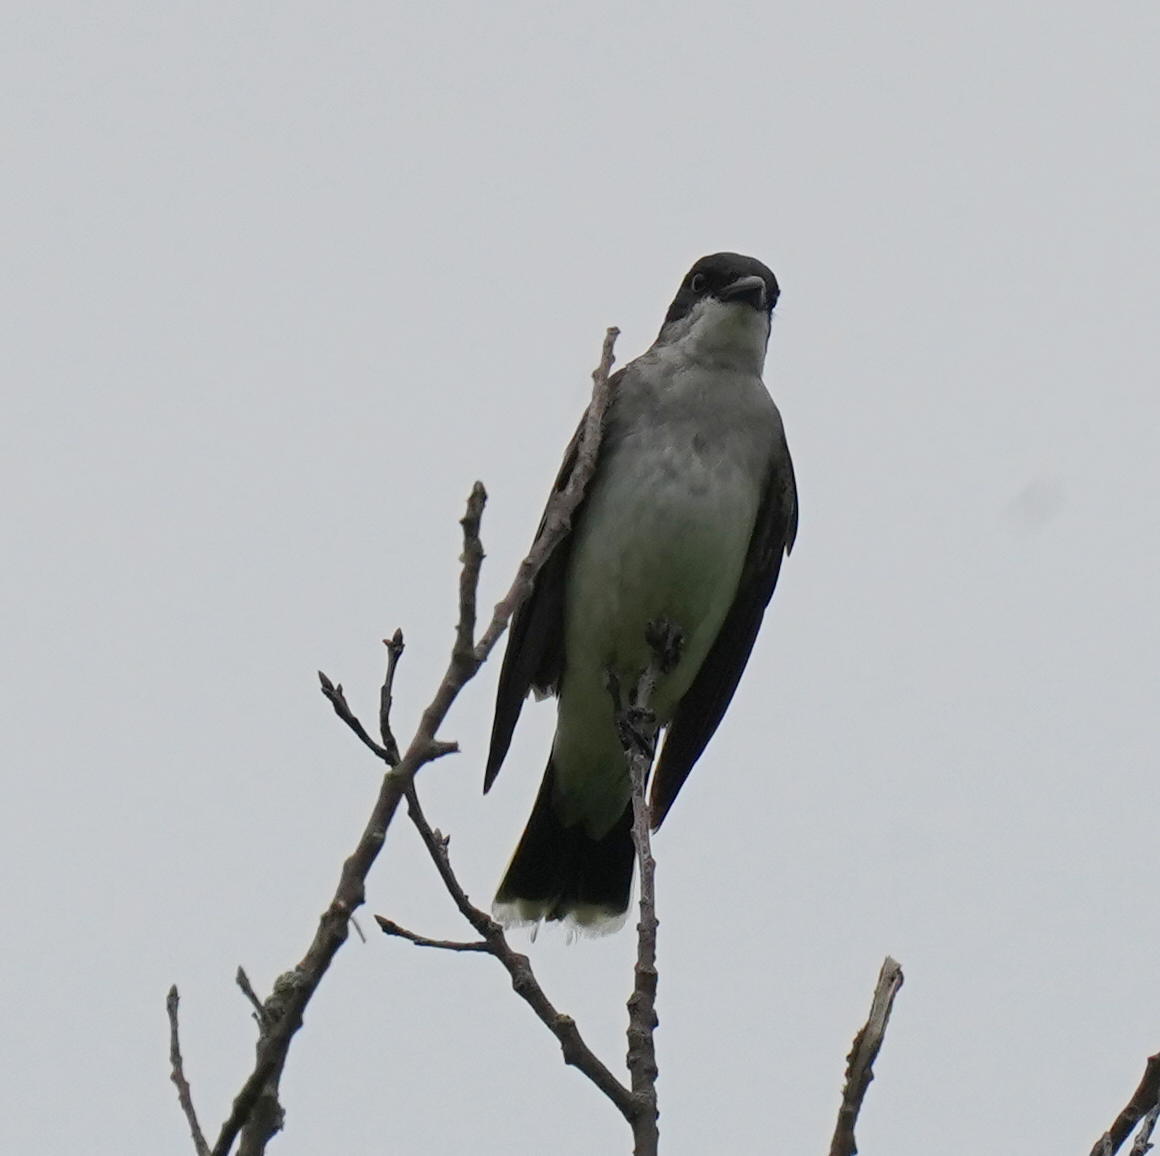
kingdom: Animalia
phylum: Chordata
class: Aves
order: Passeriformes
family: Tyrannidae
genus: Tyrannus
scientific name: Tyrannus tyrannus
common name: Eastern kingbird
